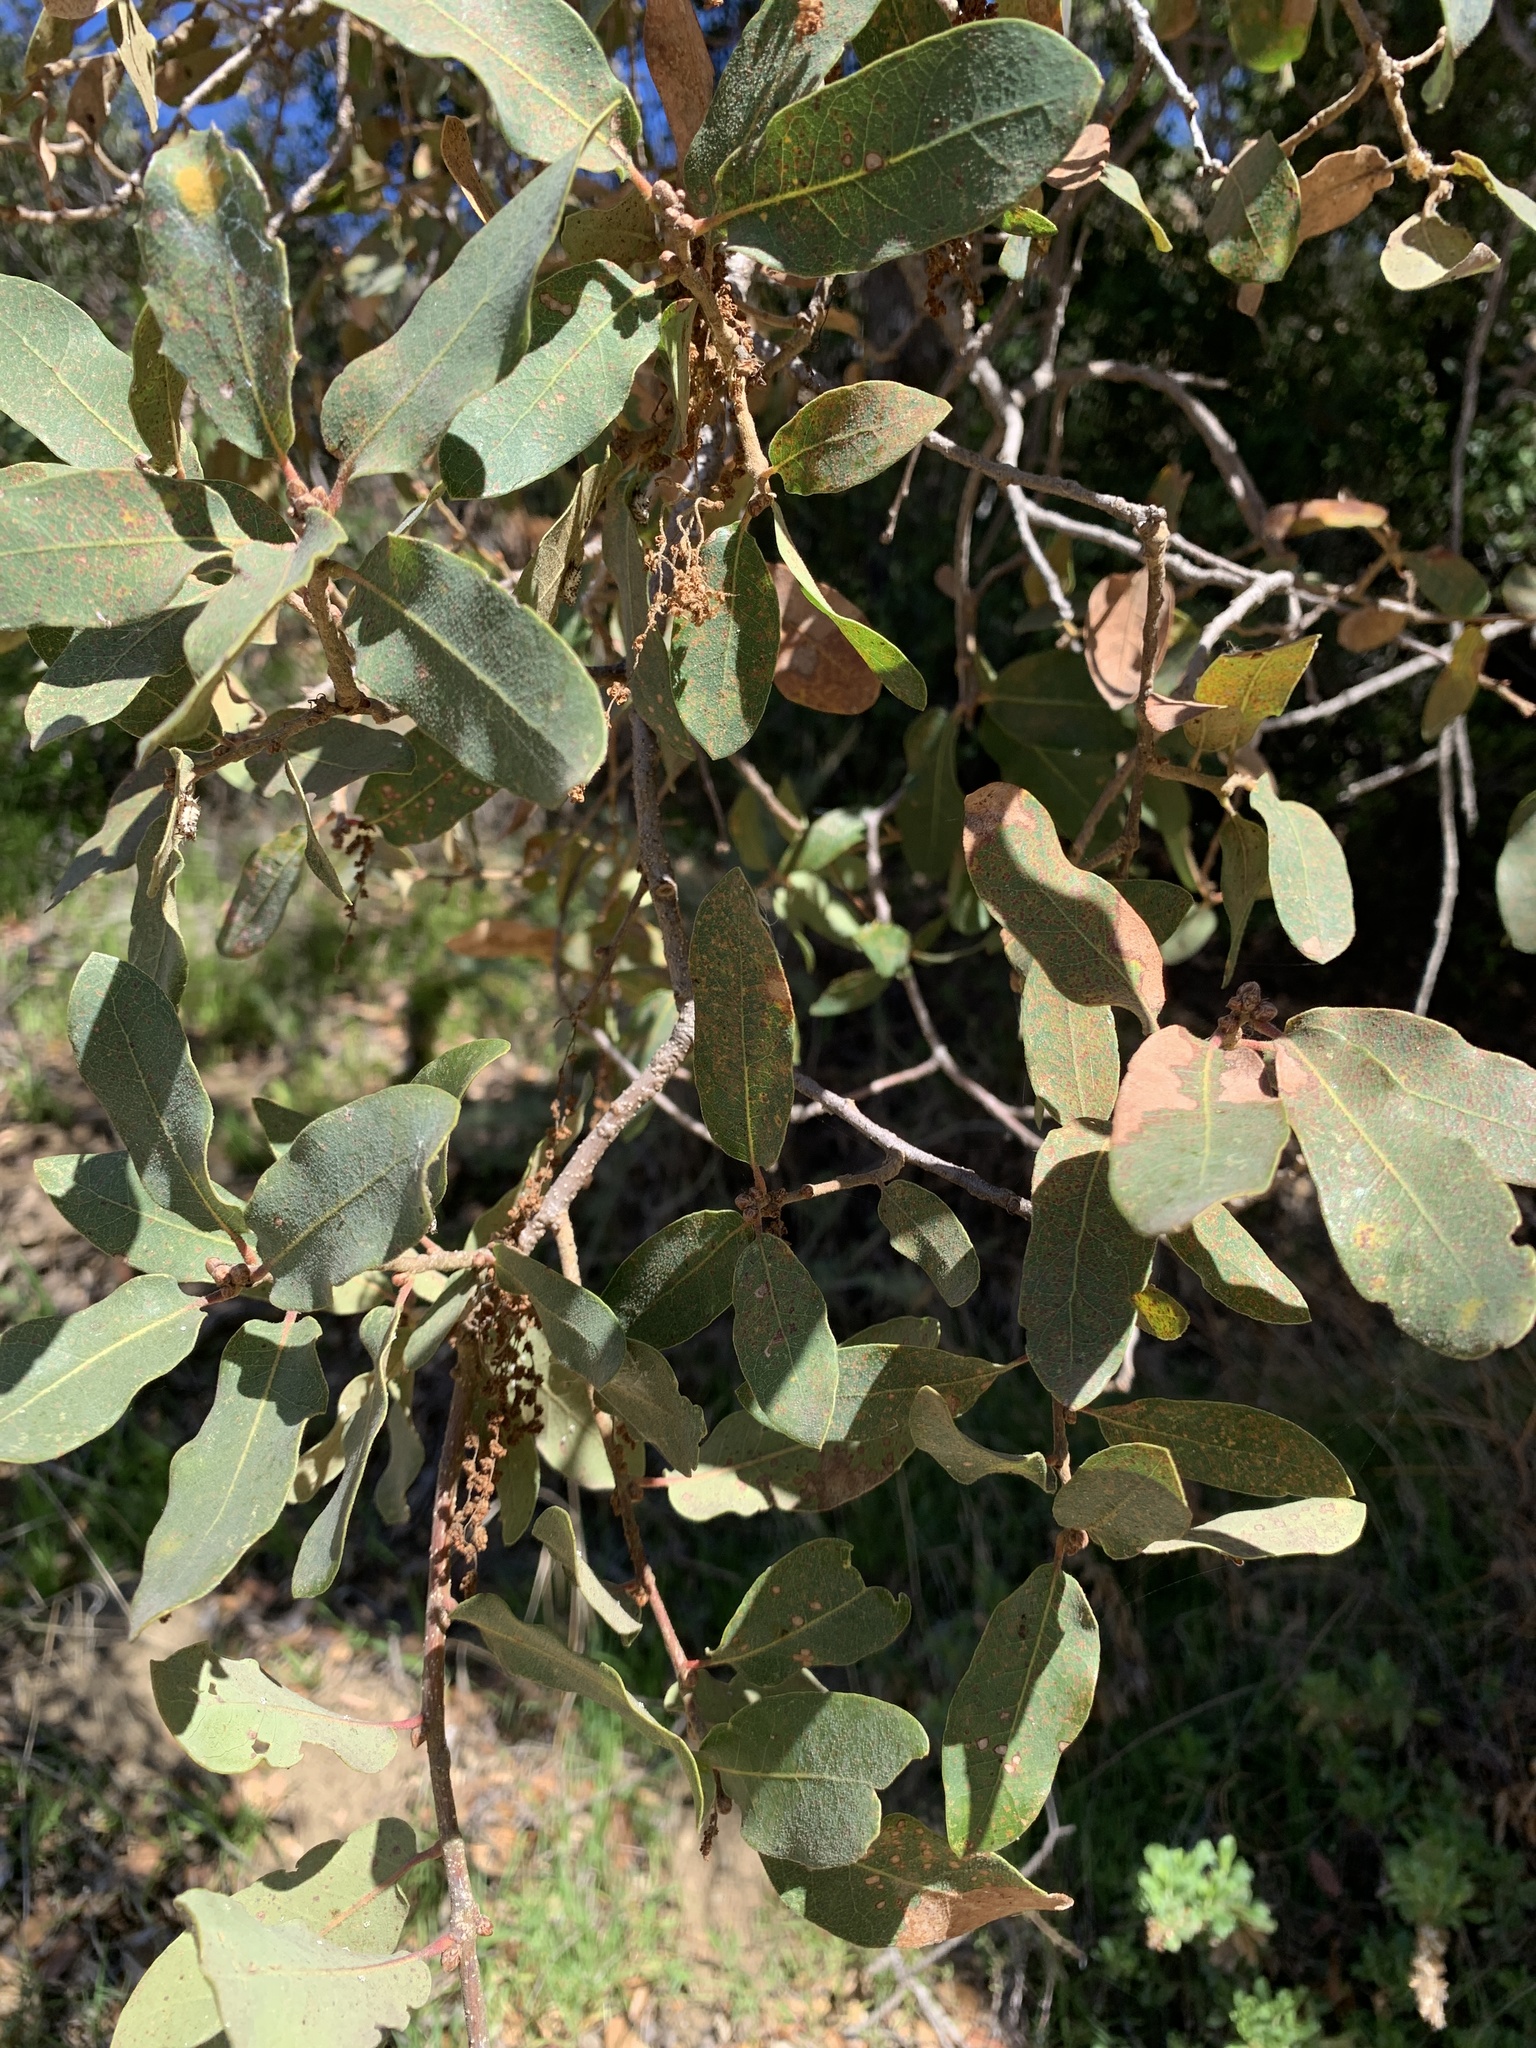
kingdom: Plantae
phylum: Tracheophyta
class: Magnoliopsida
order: Fagales
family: Fagaceae
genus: Quercus
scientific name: Quercus engelmannii
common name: Engelmann oak
